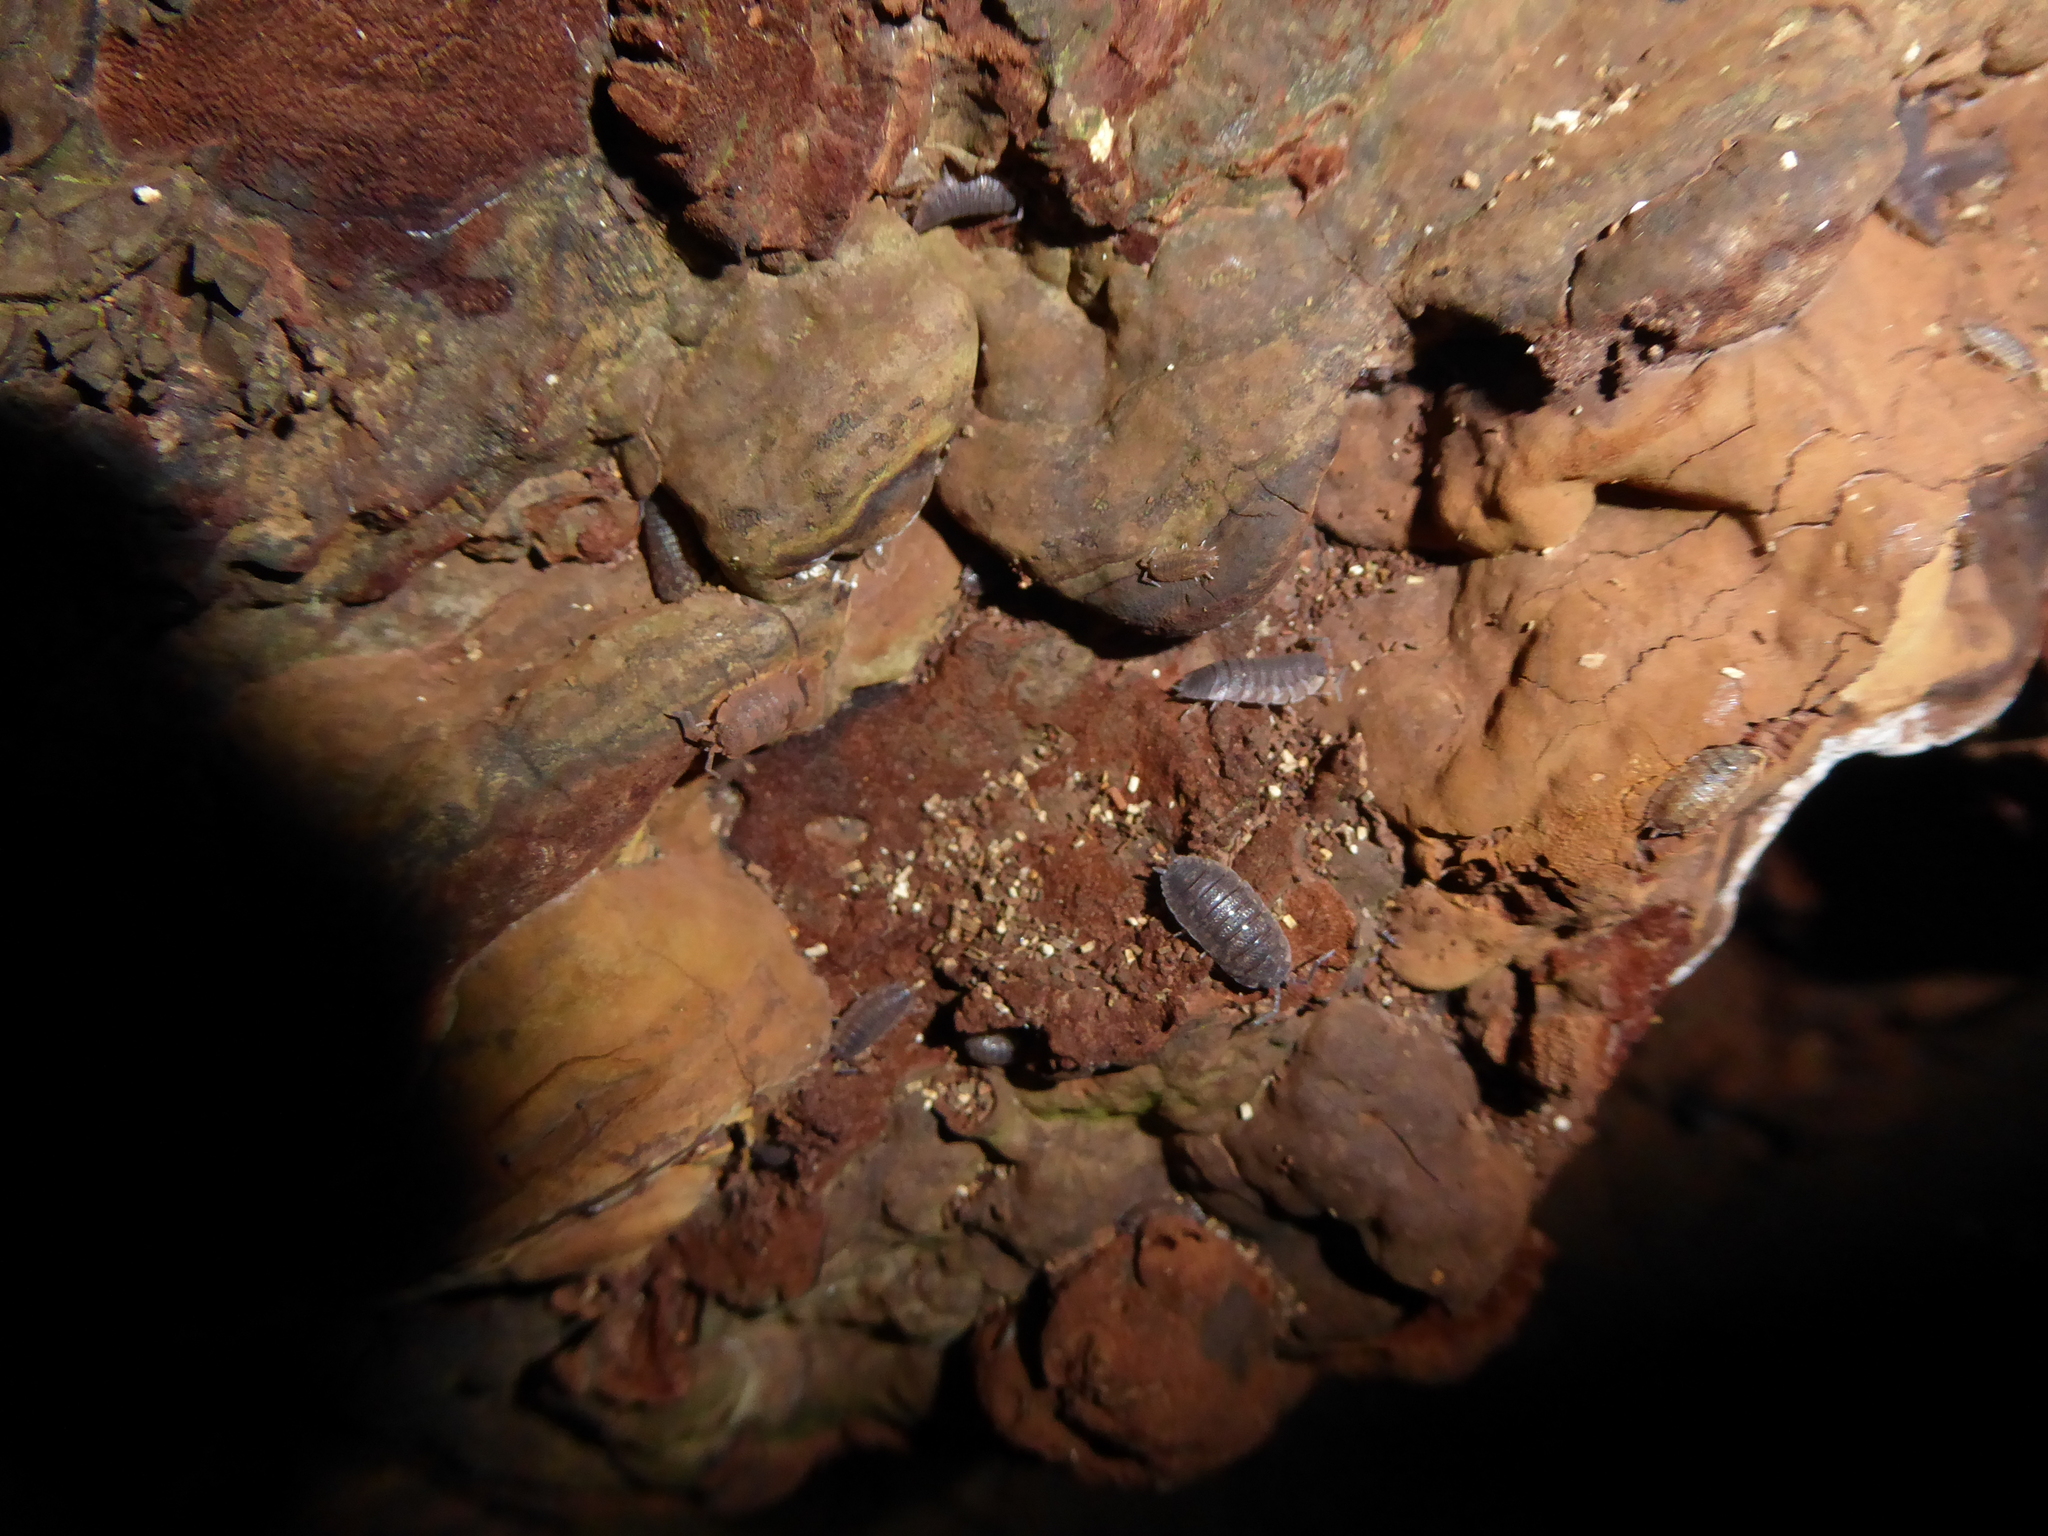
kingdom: Animalia
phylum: Arthropoda
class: Malacostraca
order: Isopoda
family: Porcellionidae
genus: Porcellio
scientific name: Porcellio scaber
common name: Common rough woodlouse
